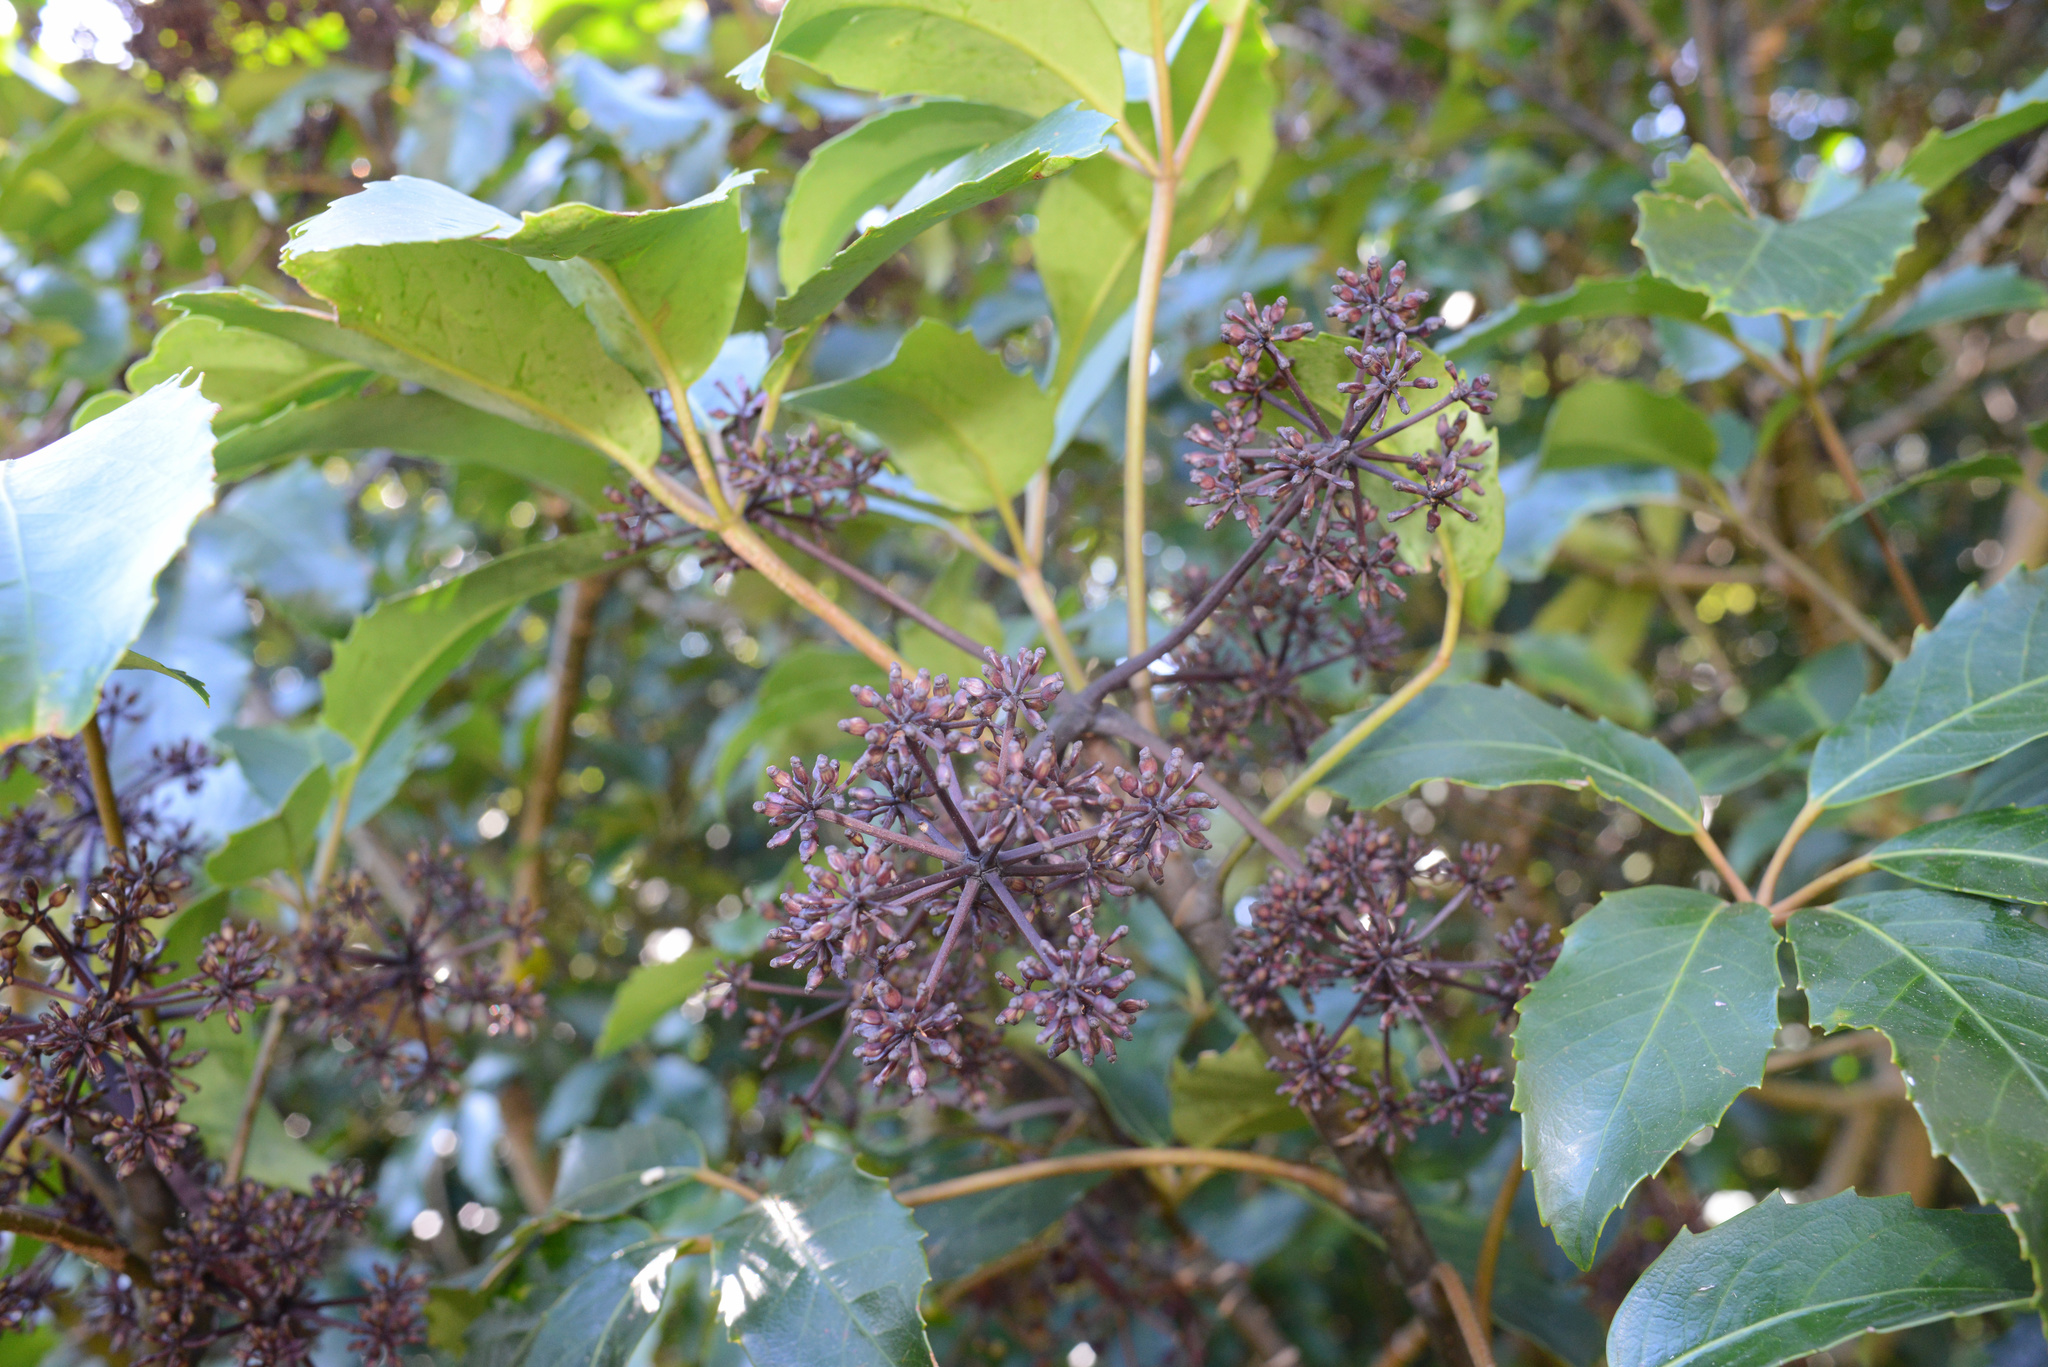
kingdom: Plantae
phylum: Tracheophyta
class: Magnoliopsida
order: Apiales
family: Araliaceae
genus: Neopanax
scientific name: Neopanax arboreus
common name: Five-fingers
